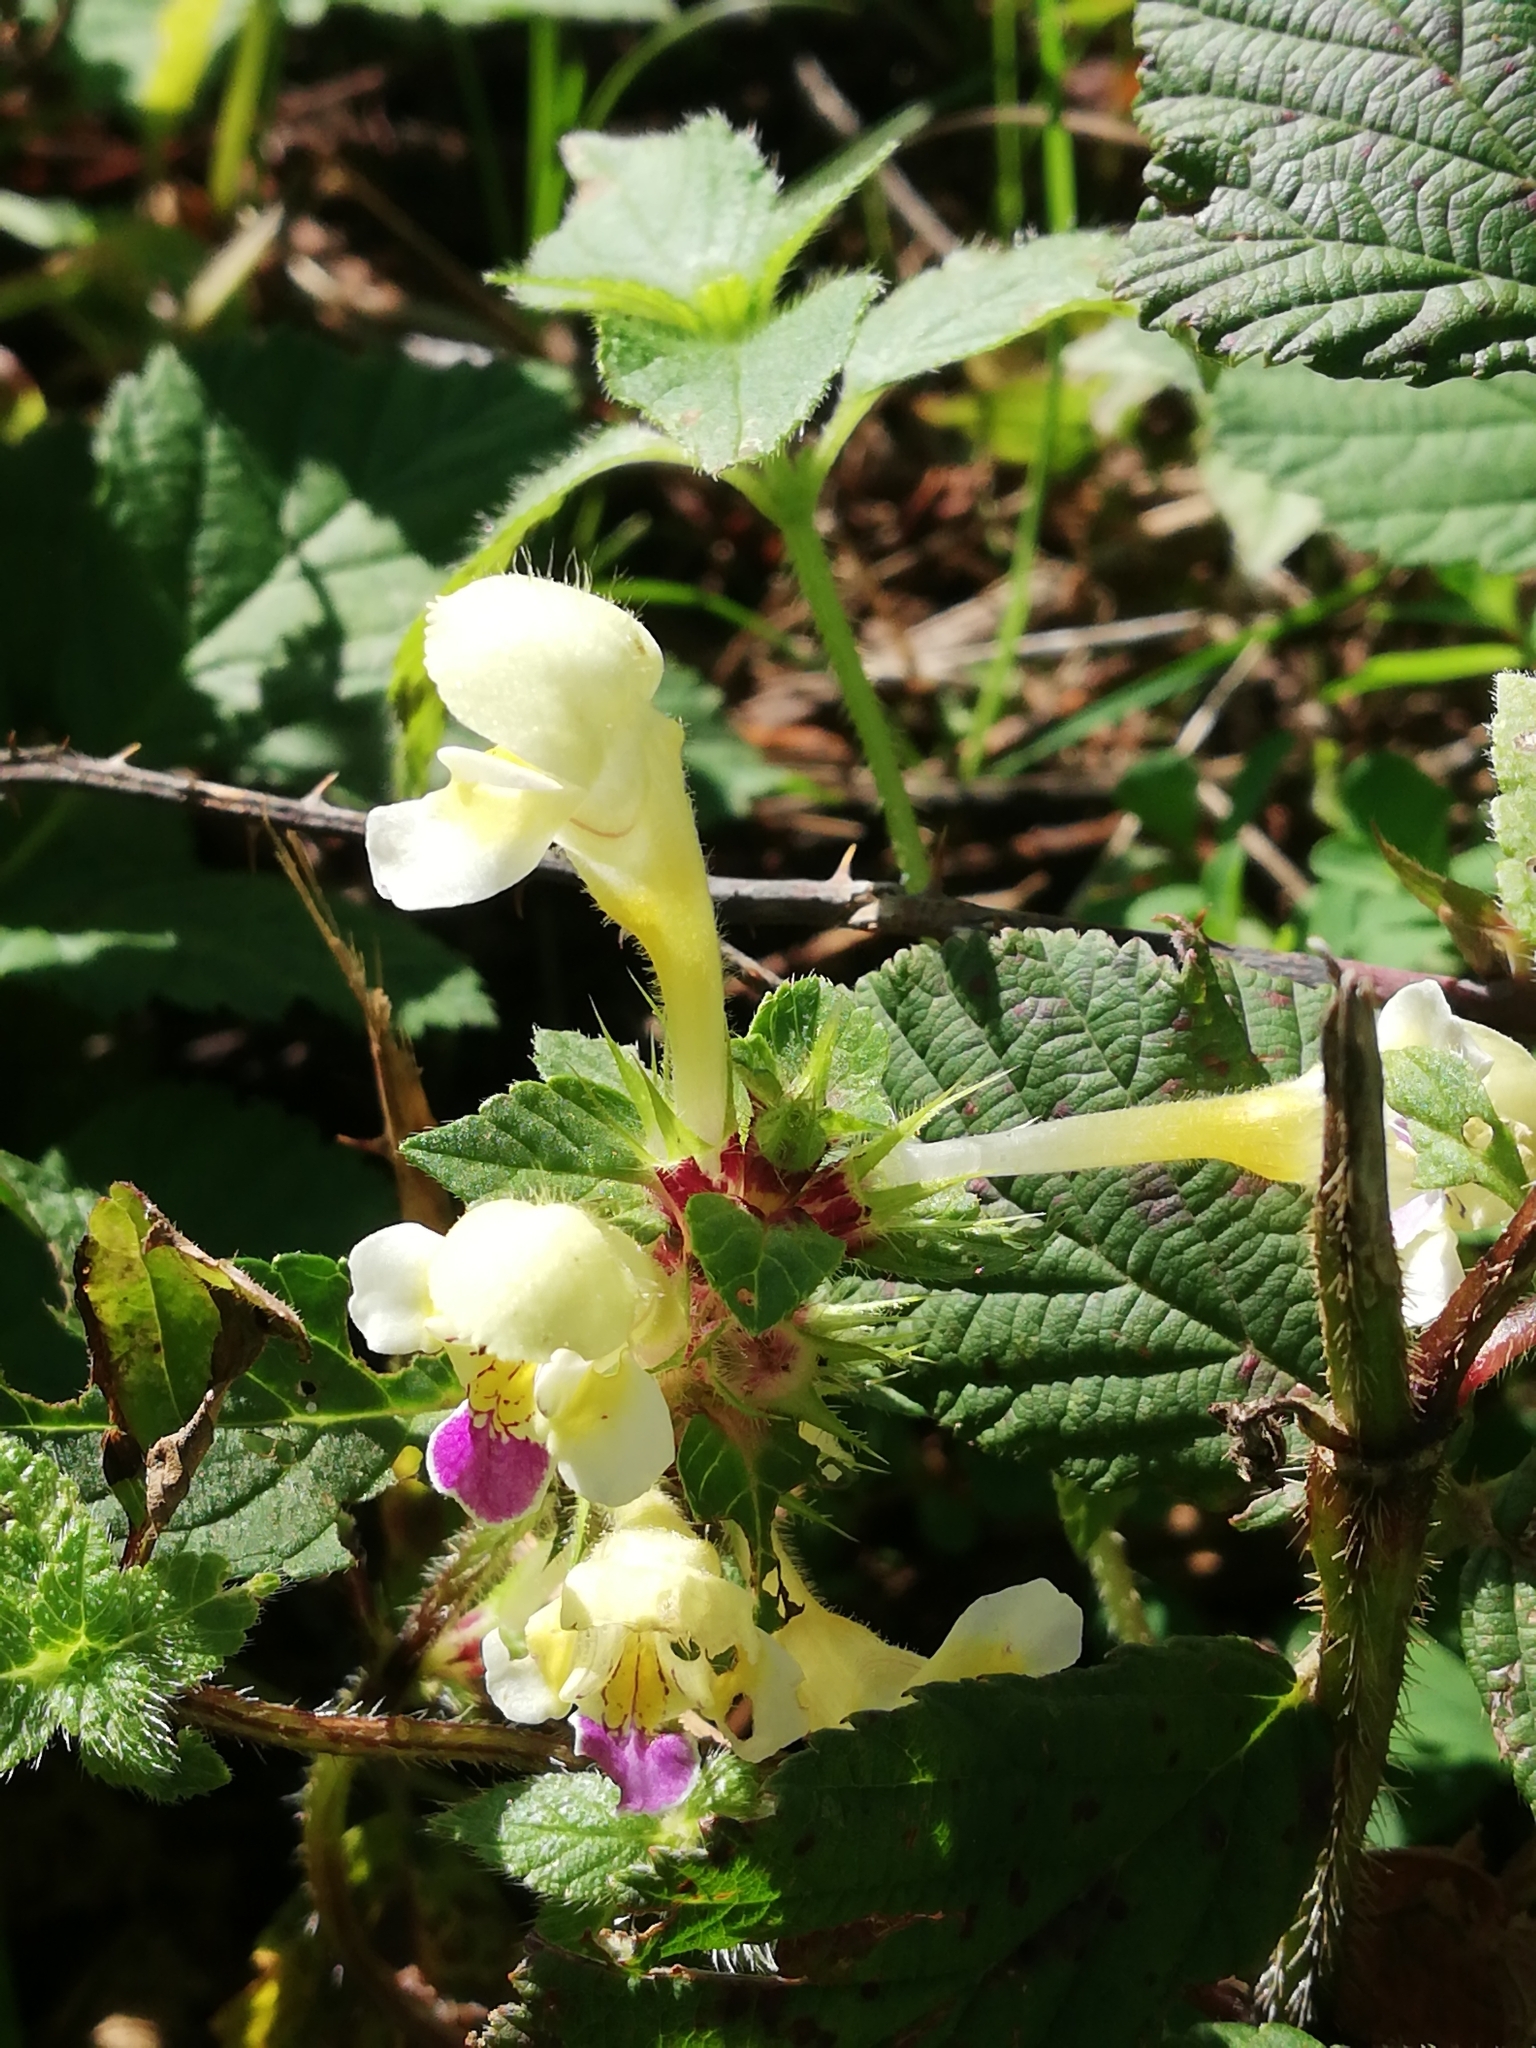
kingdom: Plantae
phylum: Tracheophyta
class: Magnoliopsida
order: Lamiales
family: Lamiaceae
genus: Galeopsis
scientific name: Galeopsis speciosa
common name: Large-flowered hemp-nettle
